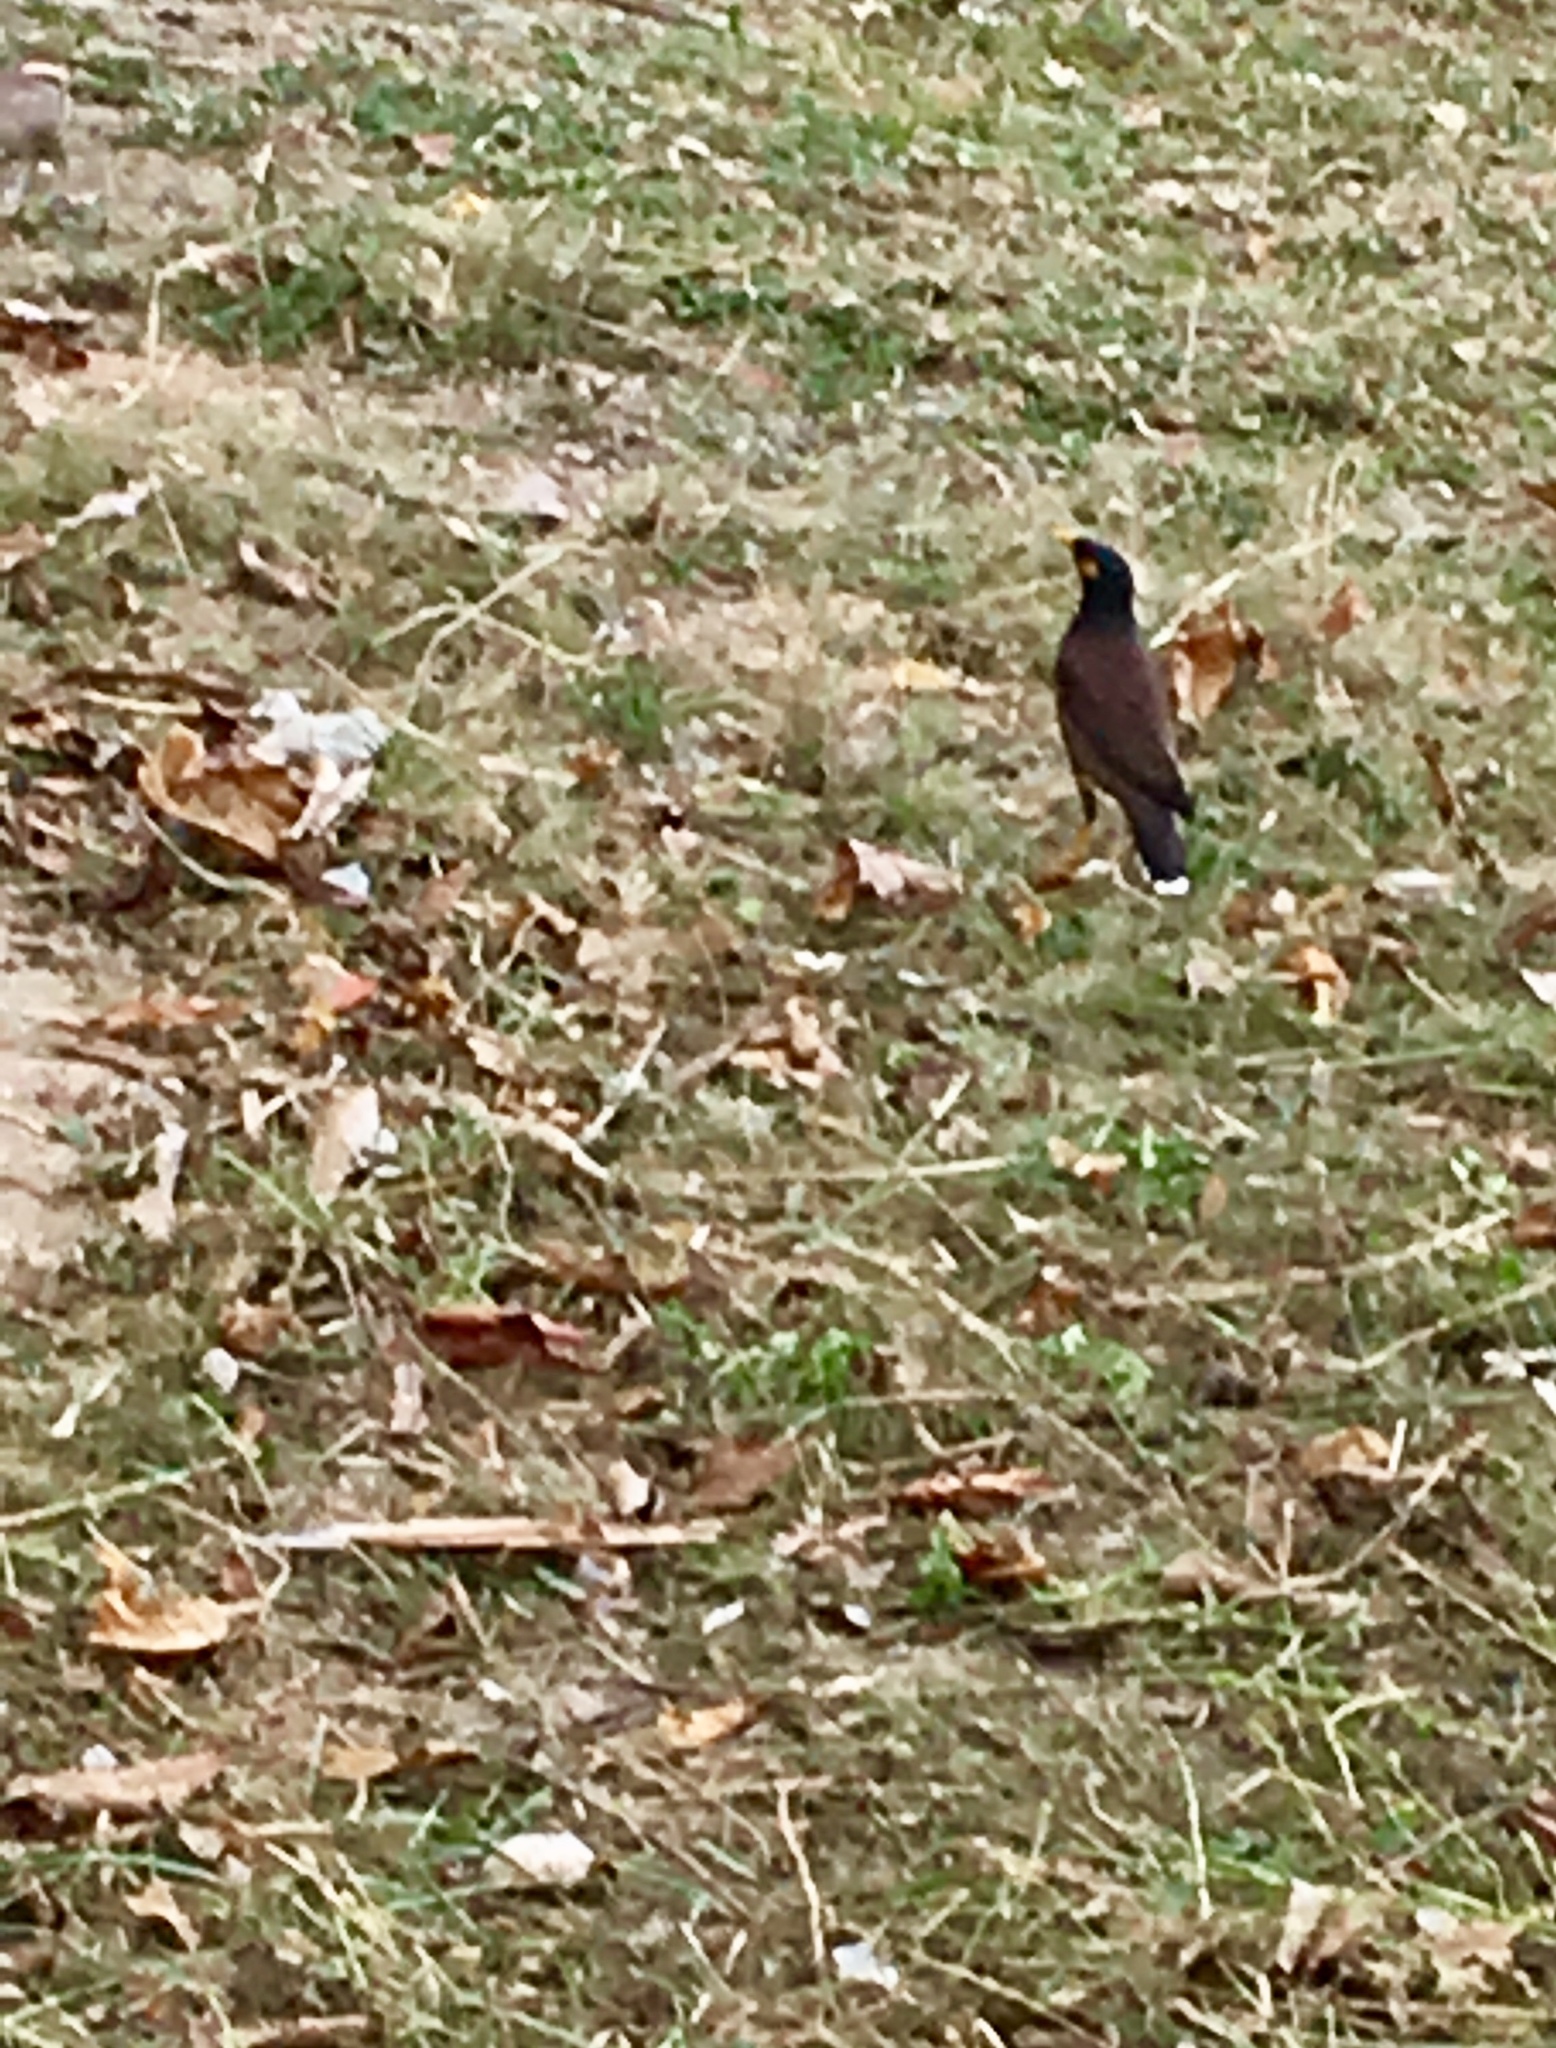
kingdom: Animalia
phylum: Chordata
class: Aves
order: Passeriformes
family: Sturnidae
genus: Acridotheres
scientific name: Acridotheres tristis
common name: Common myna
